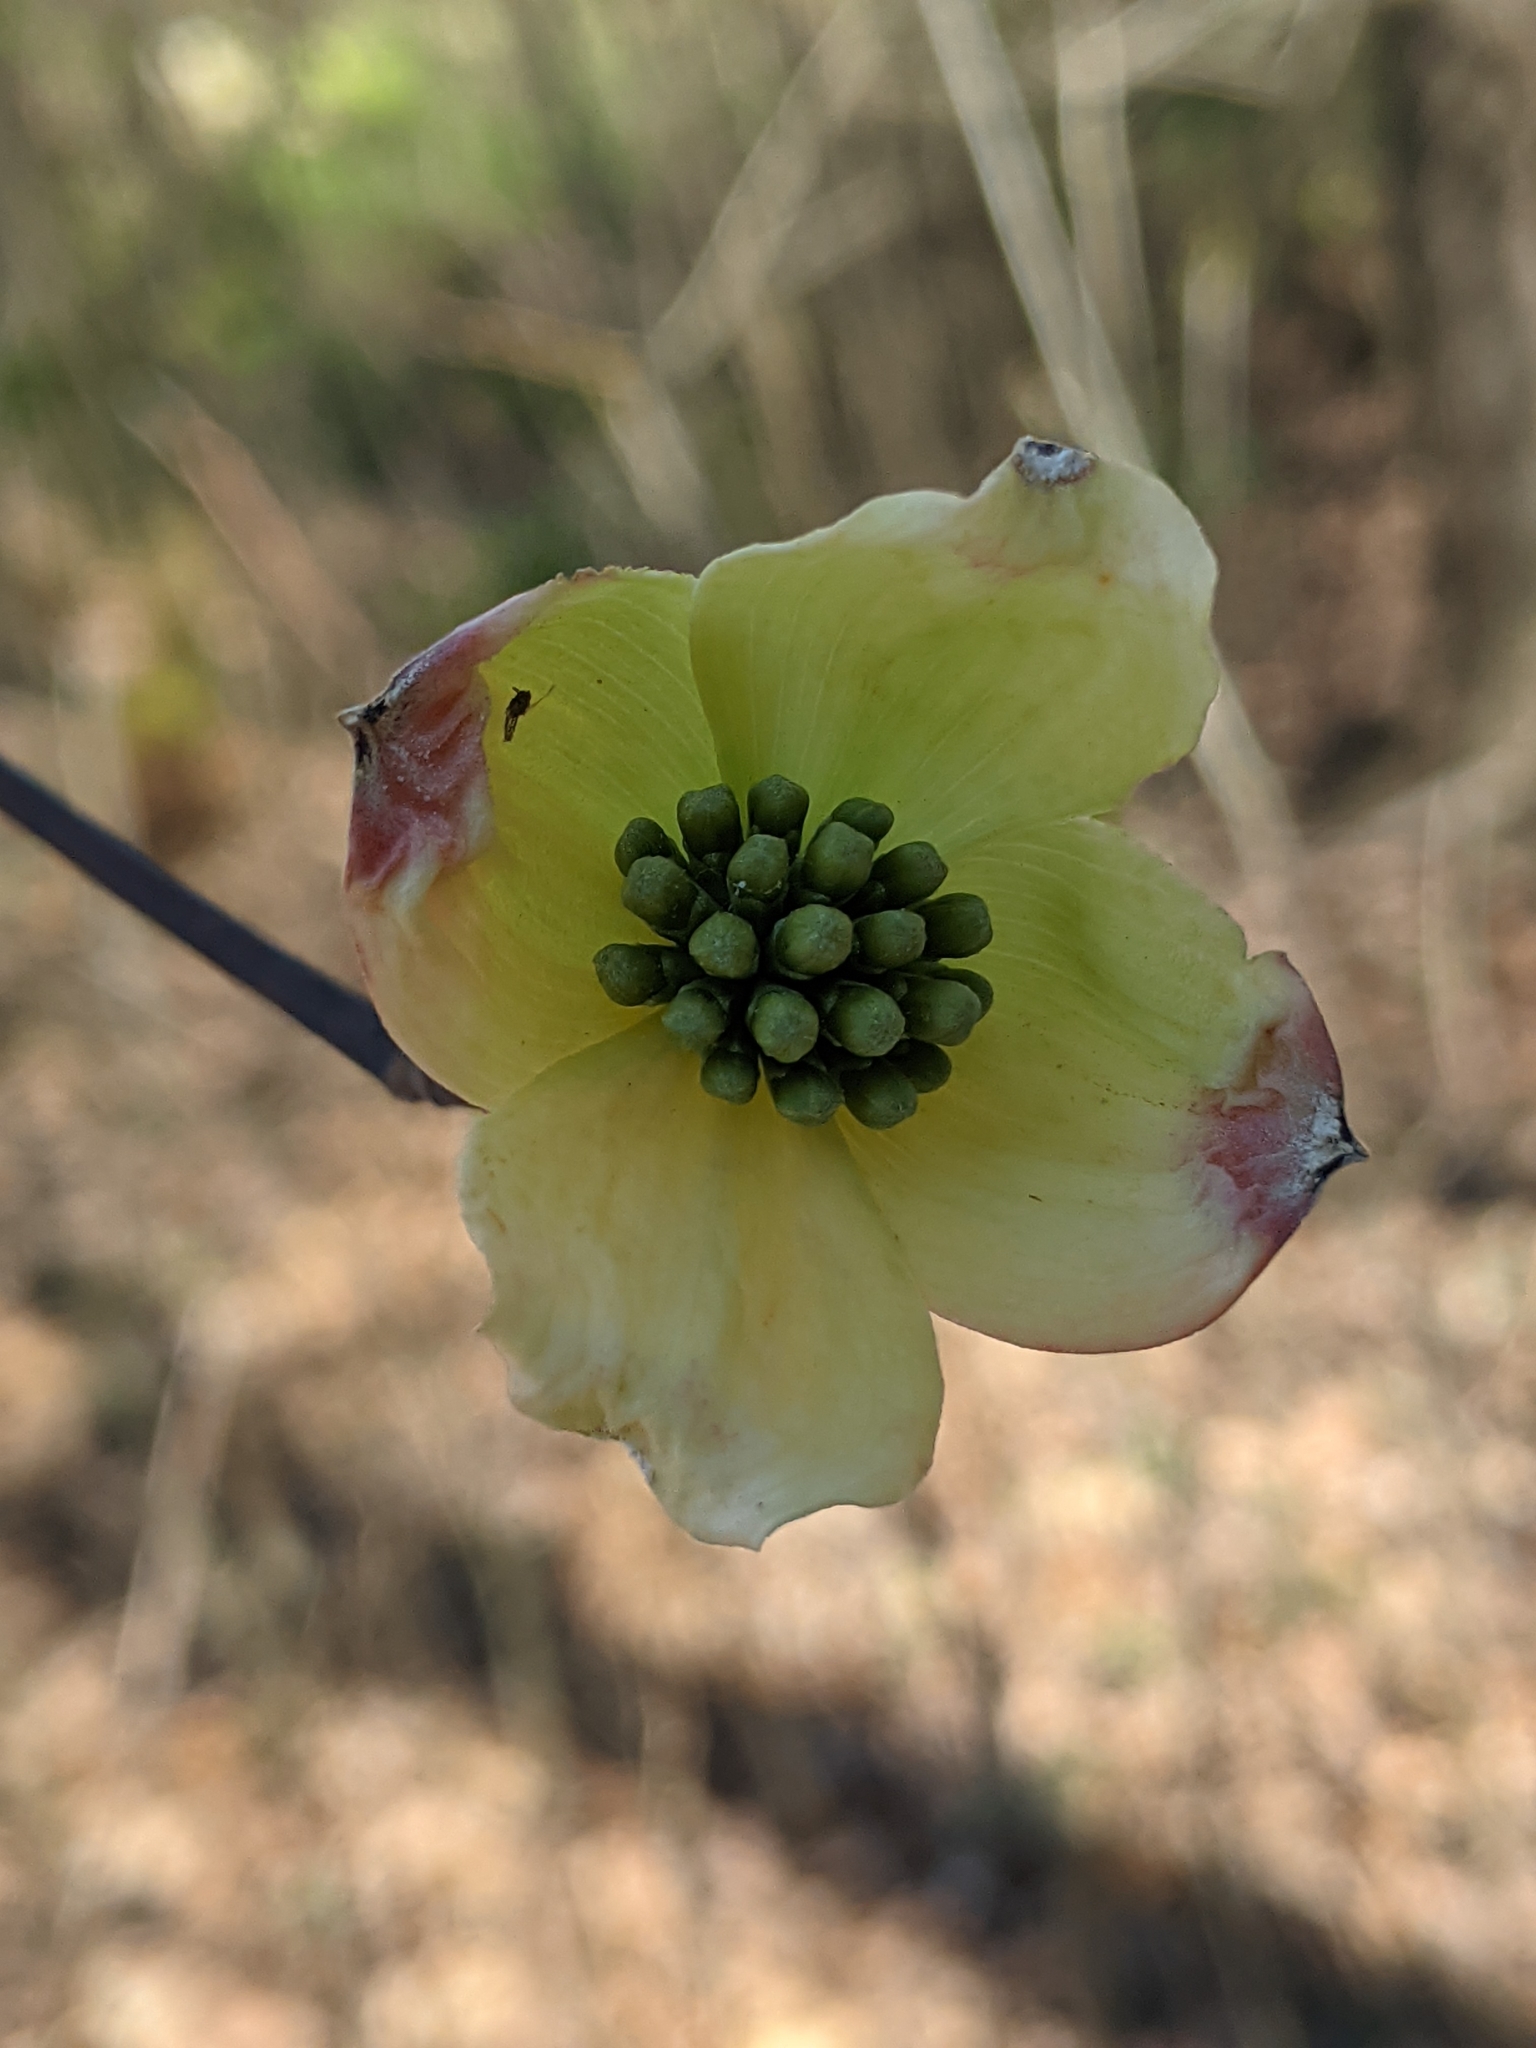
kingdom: Plantae
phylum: Tracheophyta
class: Magnoliopsida
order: Cornales
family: Cornaceae
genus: Cornus
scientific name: Cornus florida
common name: Flowering dogwood
